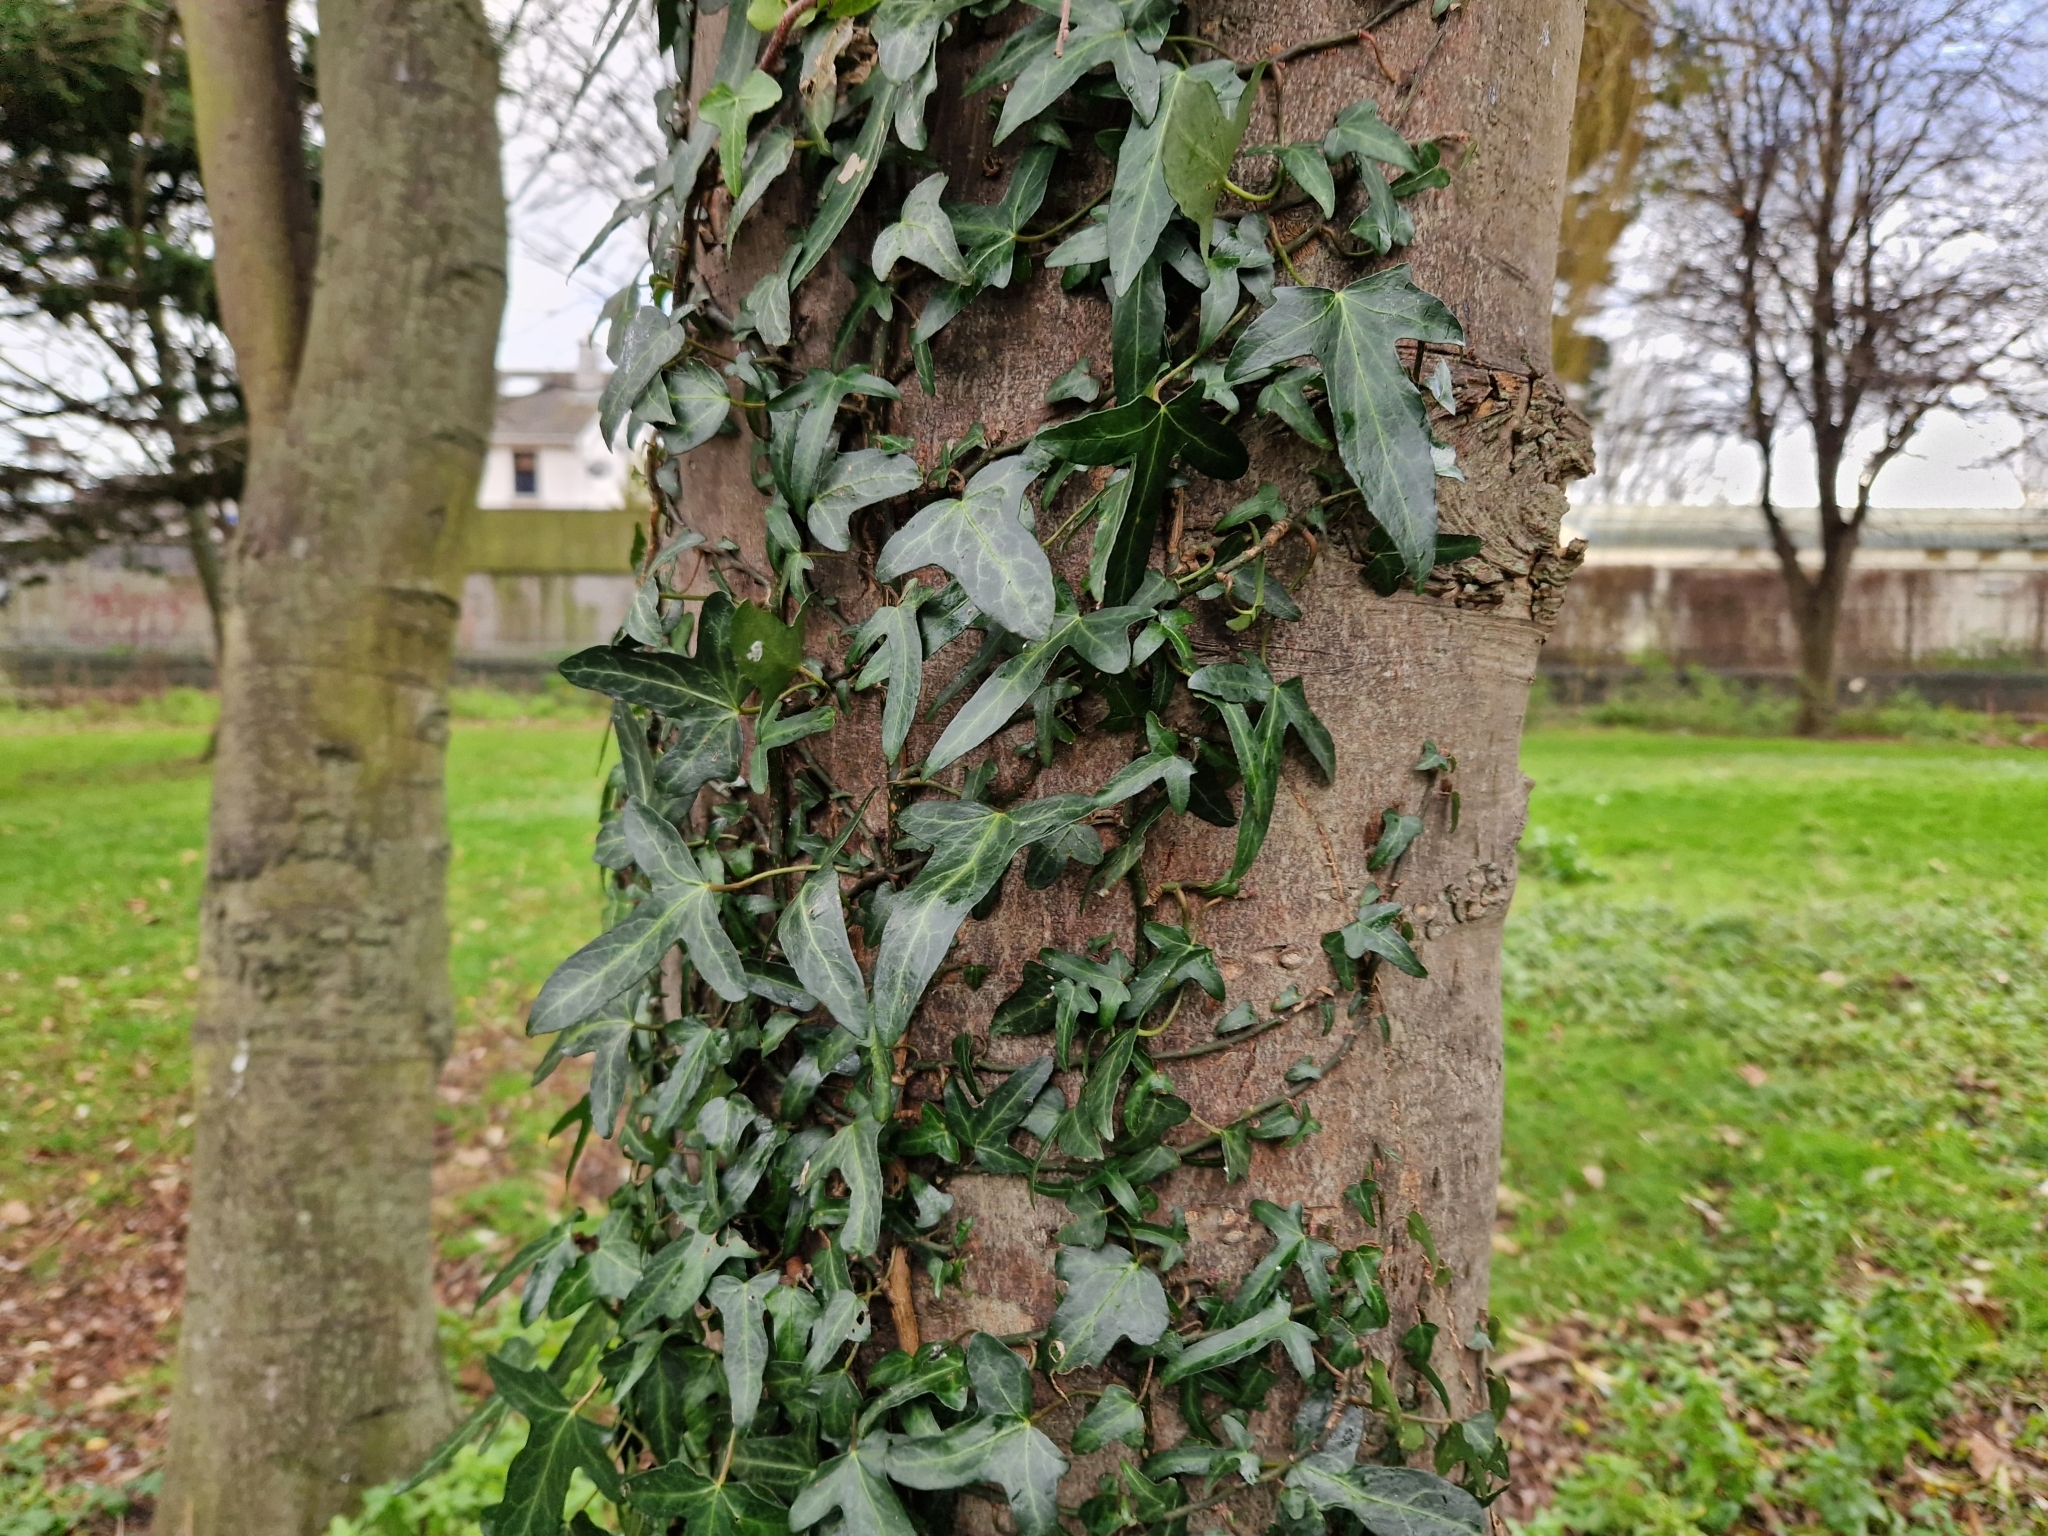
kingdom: Plantae
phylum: Tracheophyta
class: Magnoliopsida
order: Apiales
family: Araliaceae
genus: Hedera
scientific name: Hedera helix
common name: Ivy
